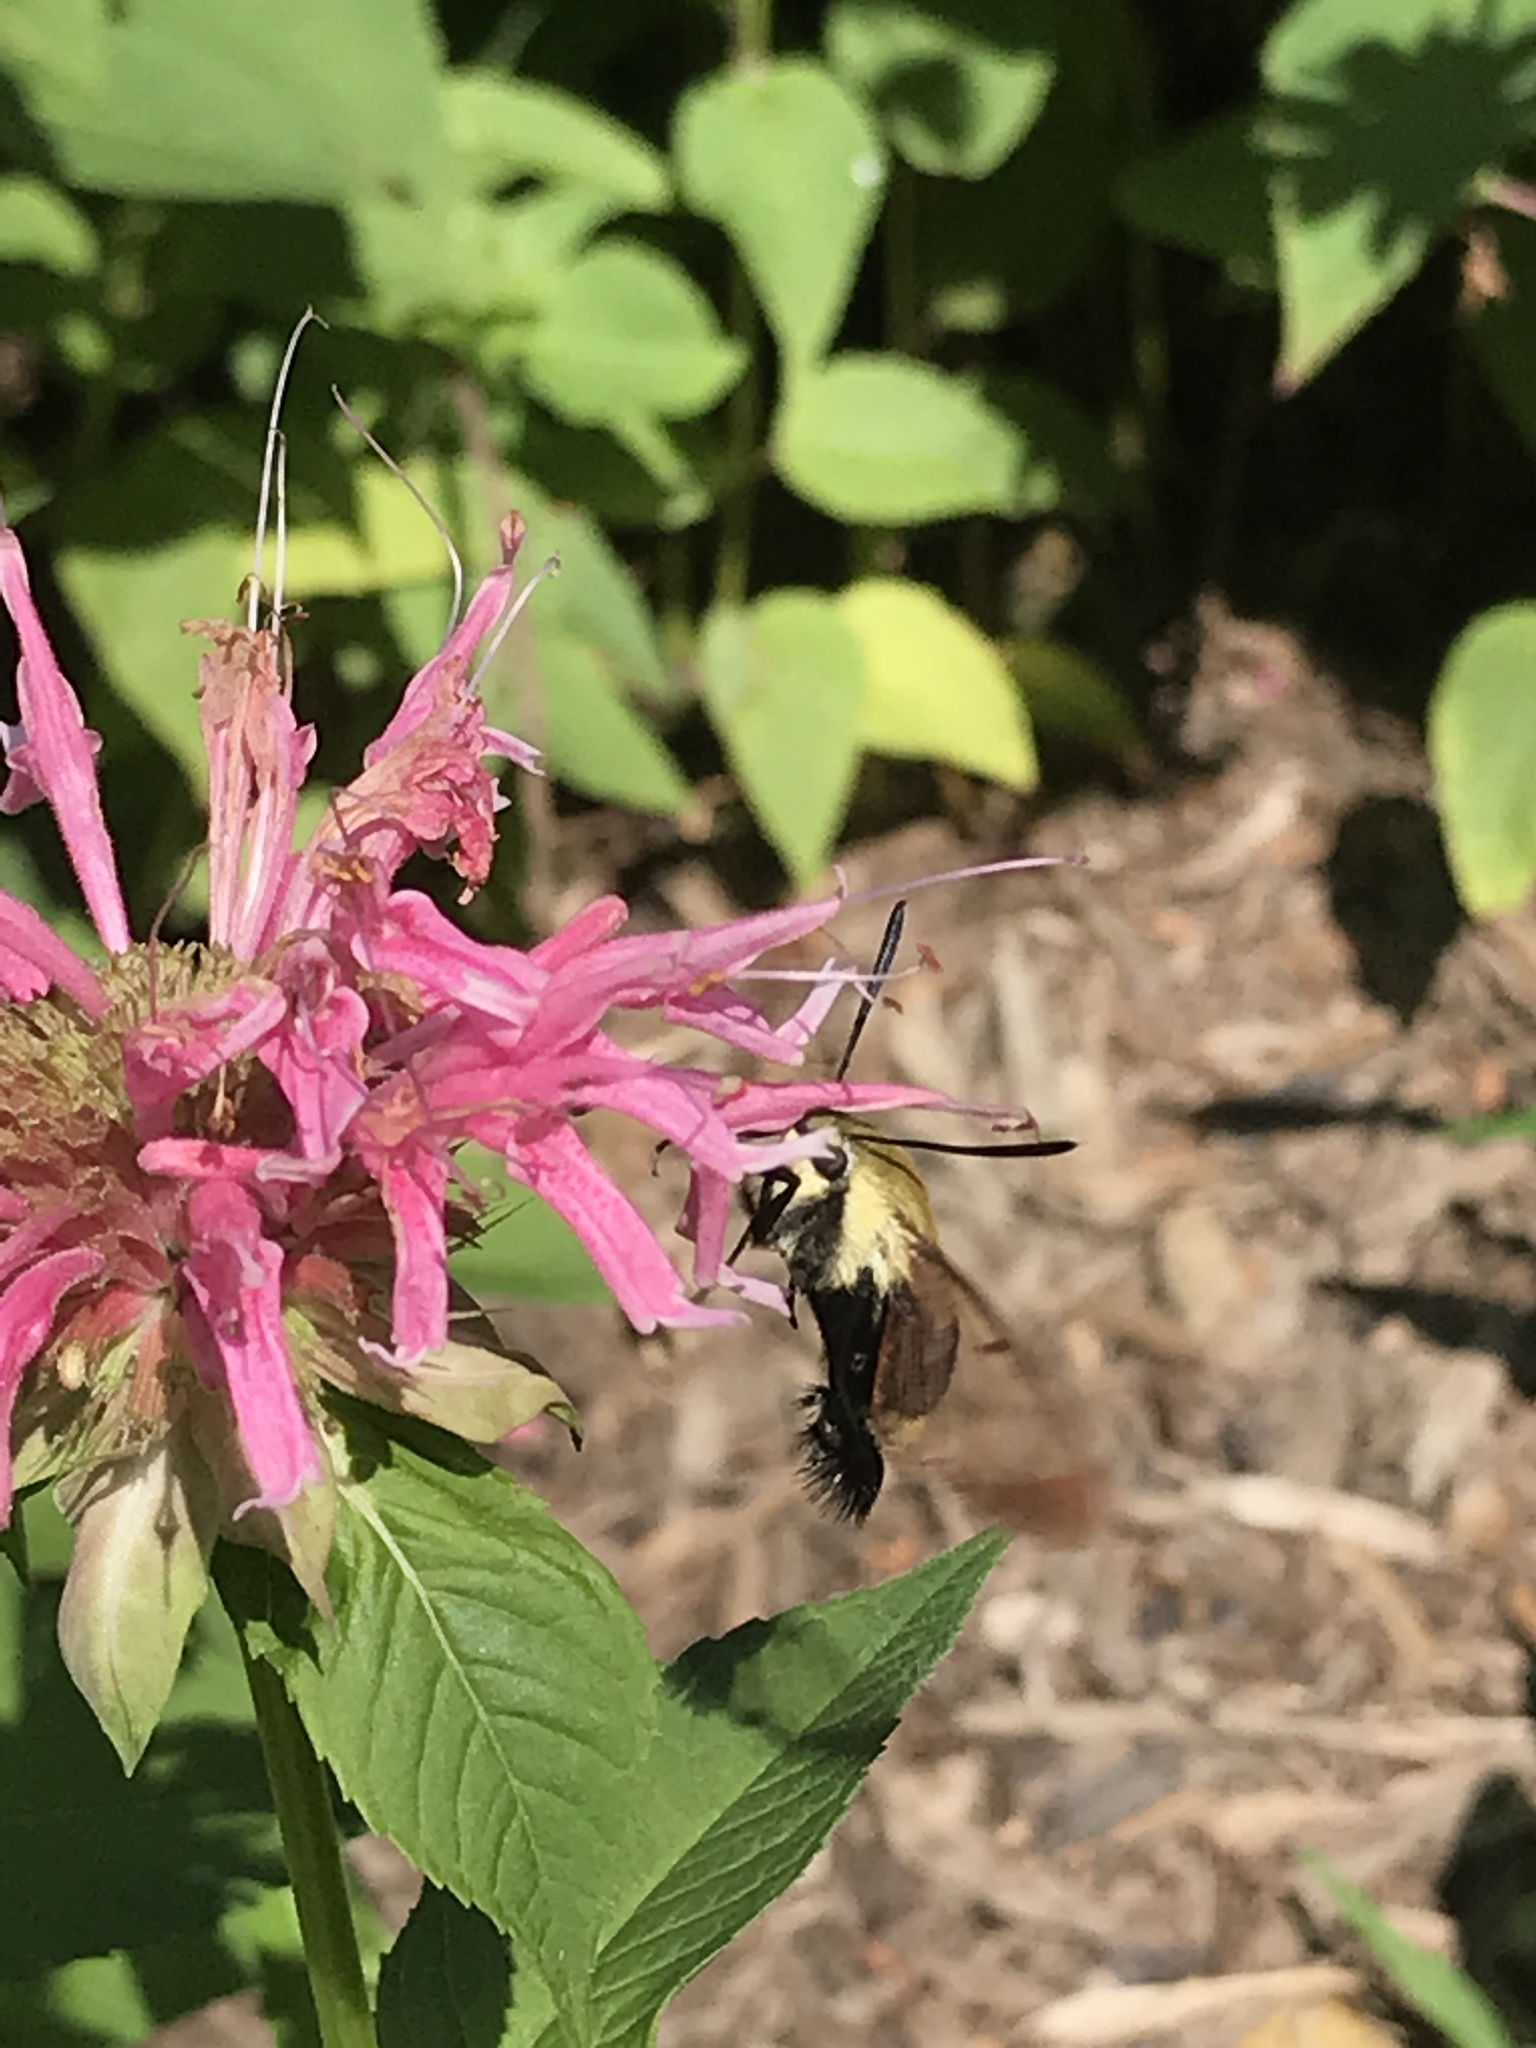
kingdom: Animalia
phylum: Arthropoda
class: Insecta
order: Lepidoptera
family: Sphingidae
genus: Hemaris
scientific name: Hemaris diffinis
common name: Bumblebee moth
